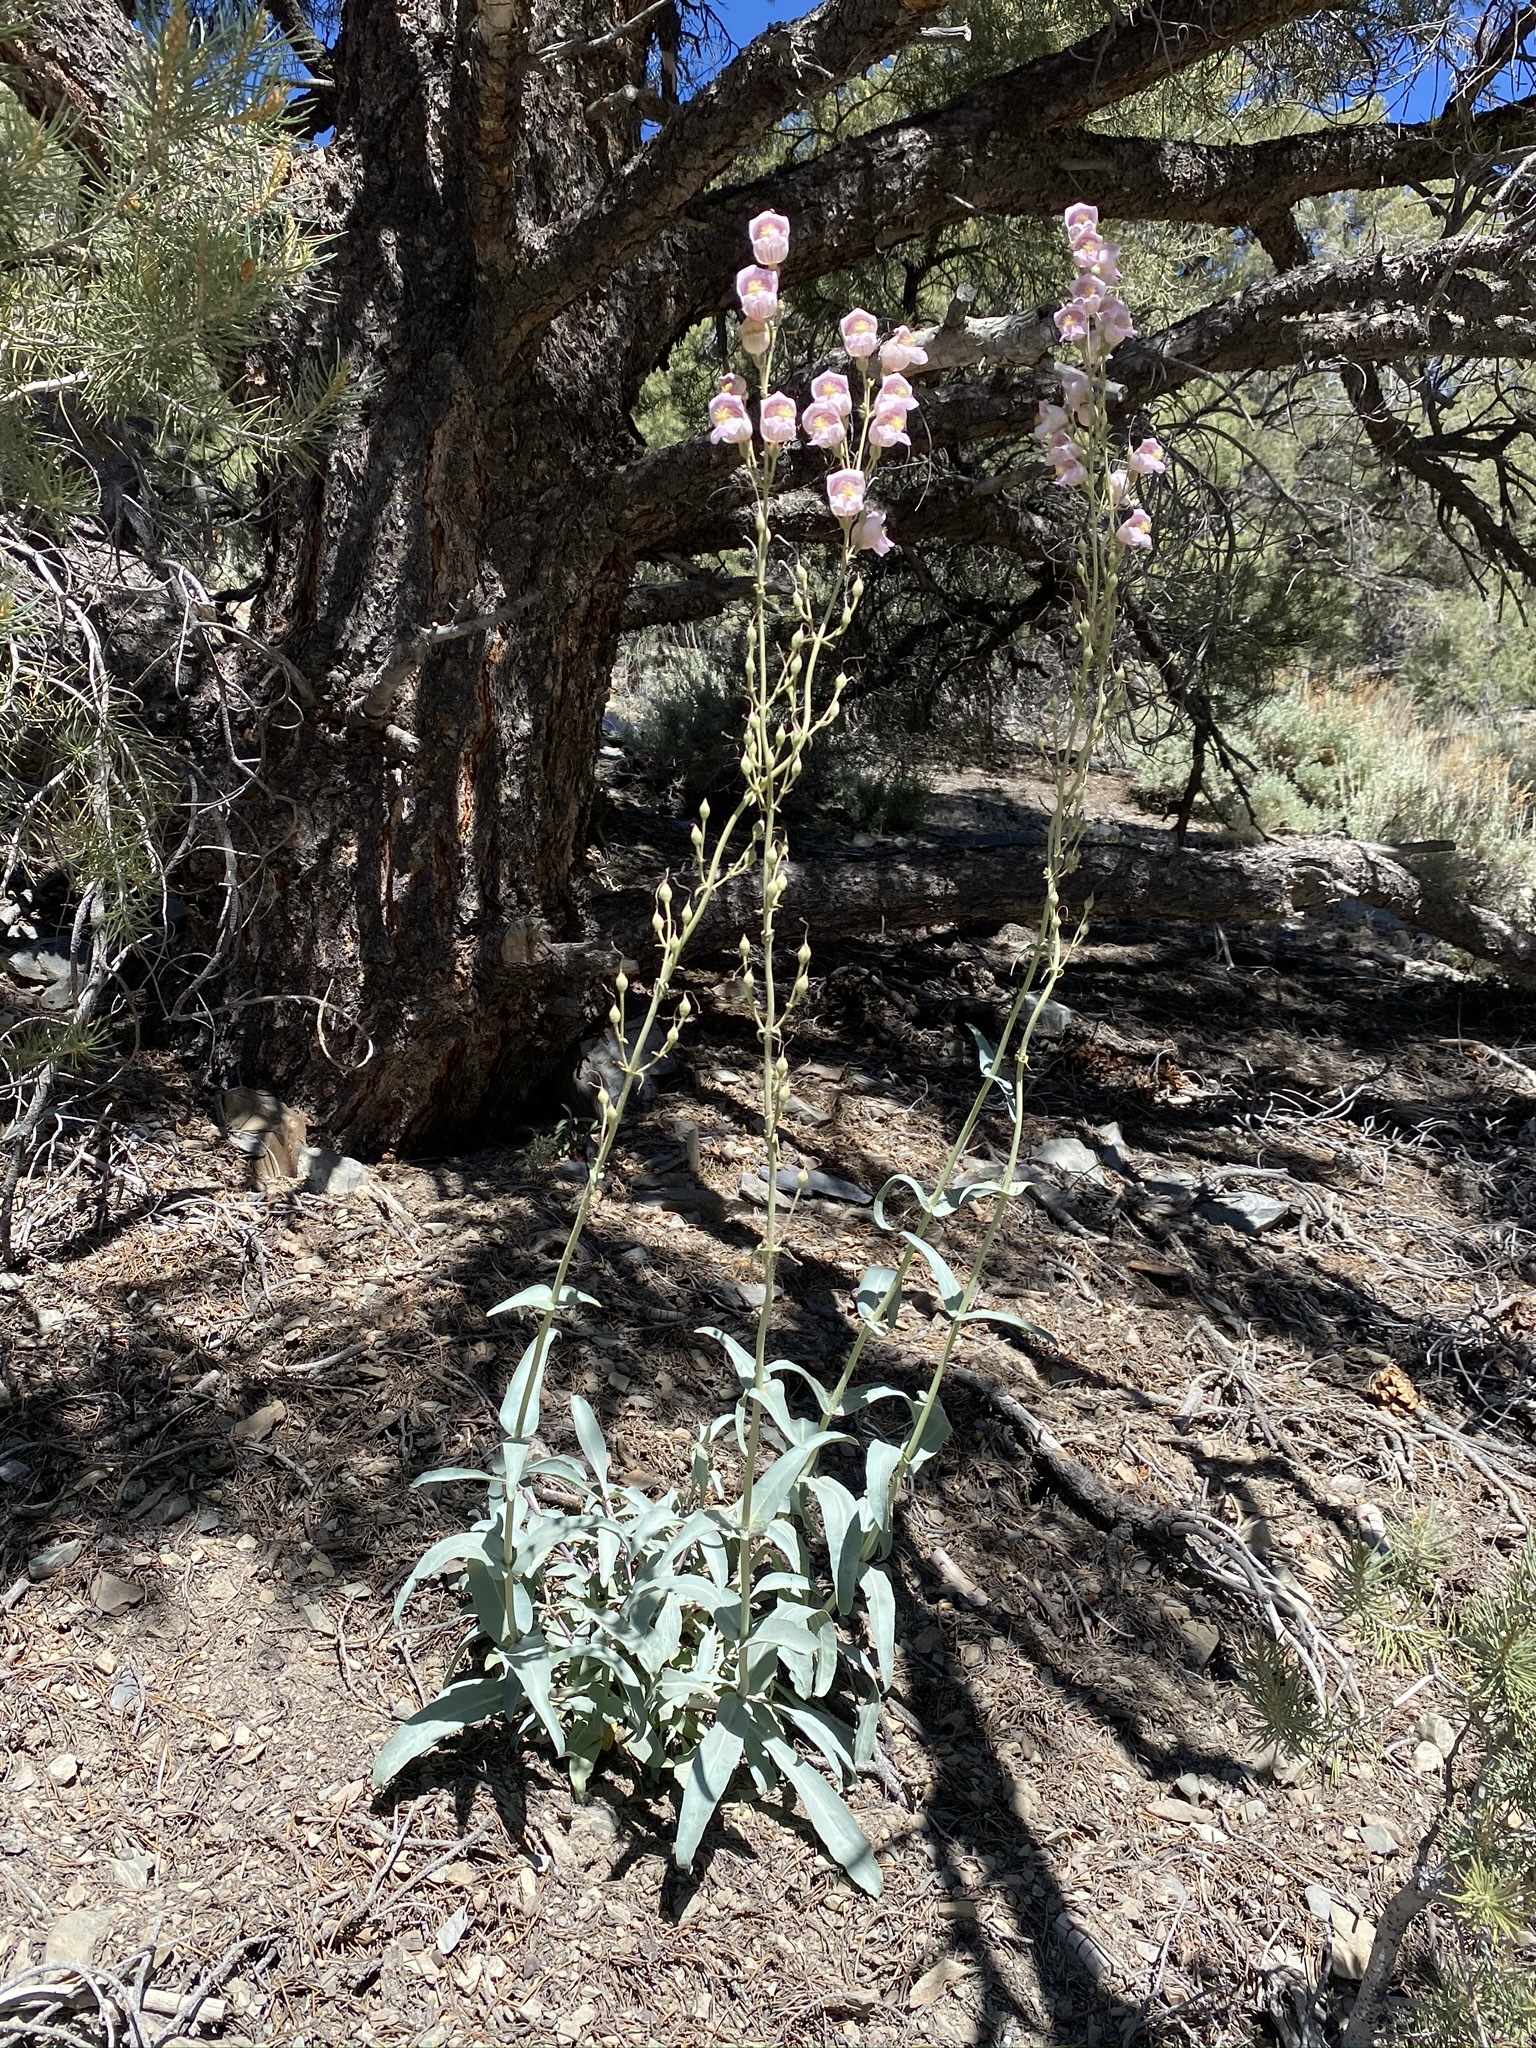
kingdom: Plantae
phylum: Tracheophyta
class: Magnoliopsida
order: Lamiales
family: Plantaginaceae
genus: Penstemon
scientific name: Penstemon palmeri
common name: Palmer penstemon
